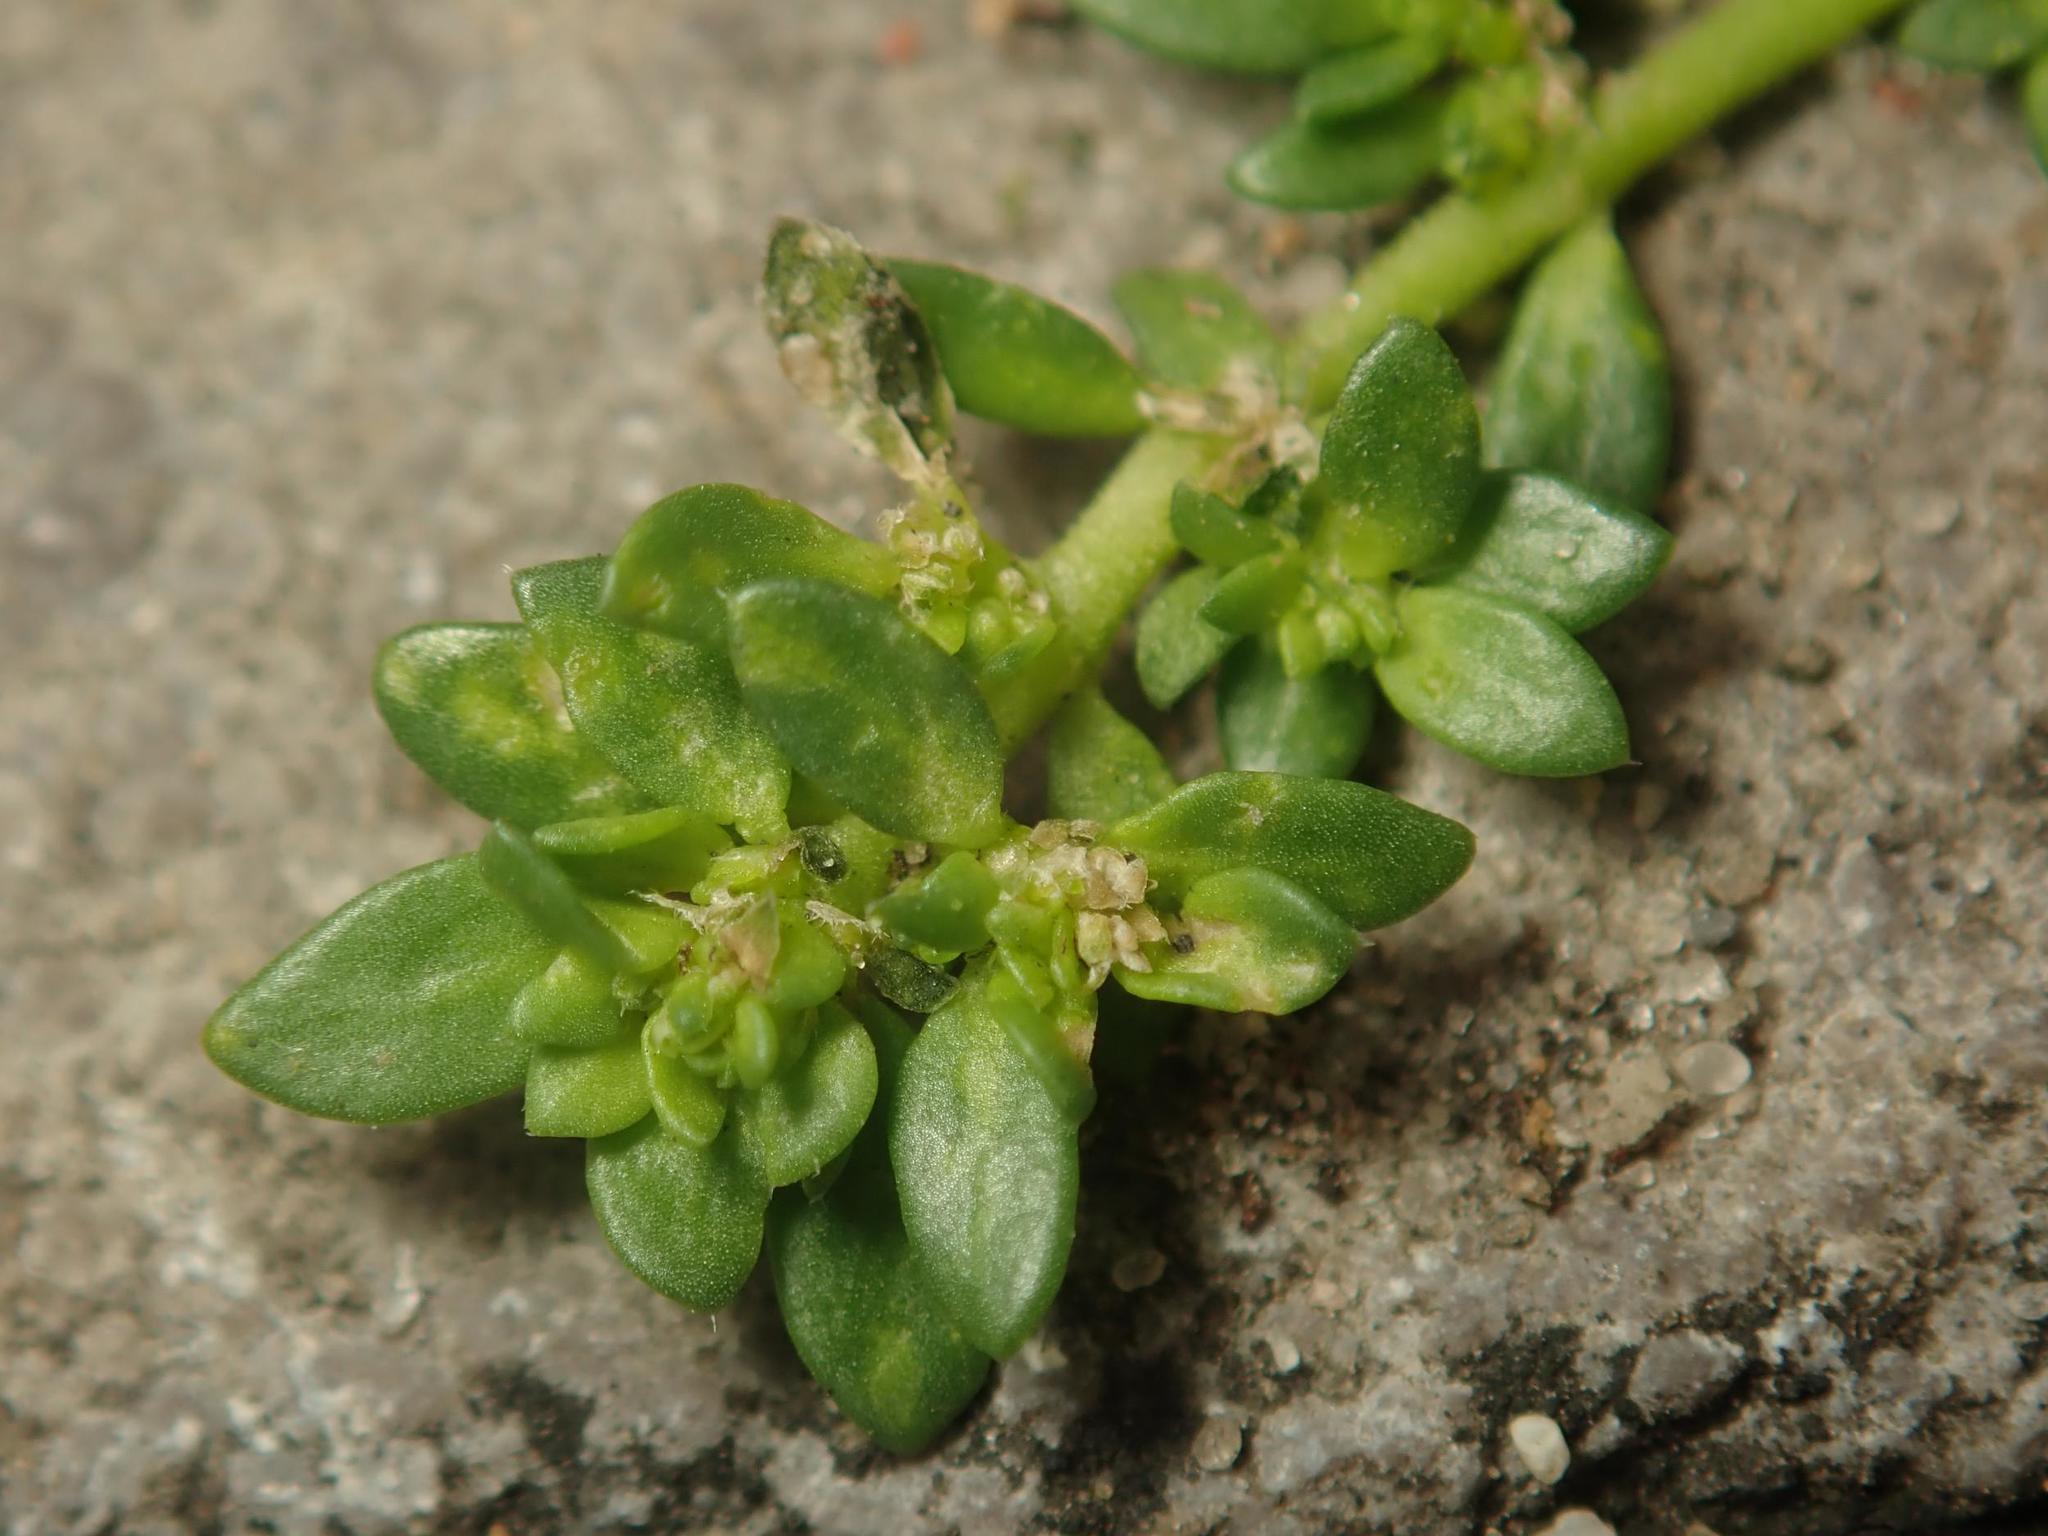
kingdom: Plantae
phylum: Tracheophyta
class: Magnoliopsida
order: Caryophyllales
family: Caryophyllaceae
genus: Herniaria
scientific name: Herniaria glabra
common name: Smooth rupturewort
